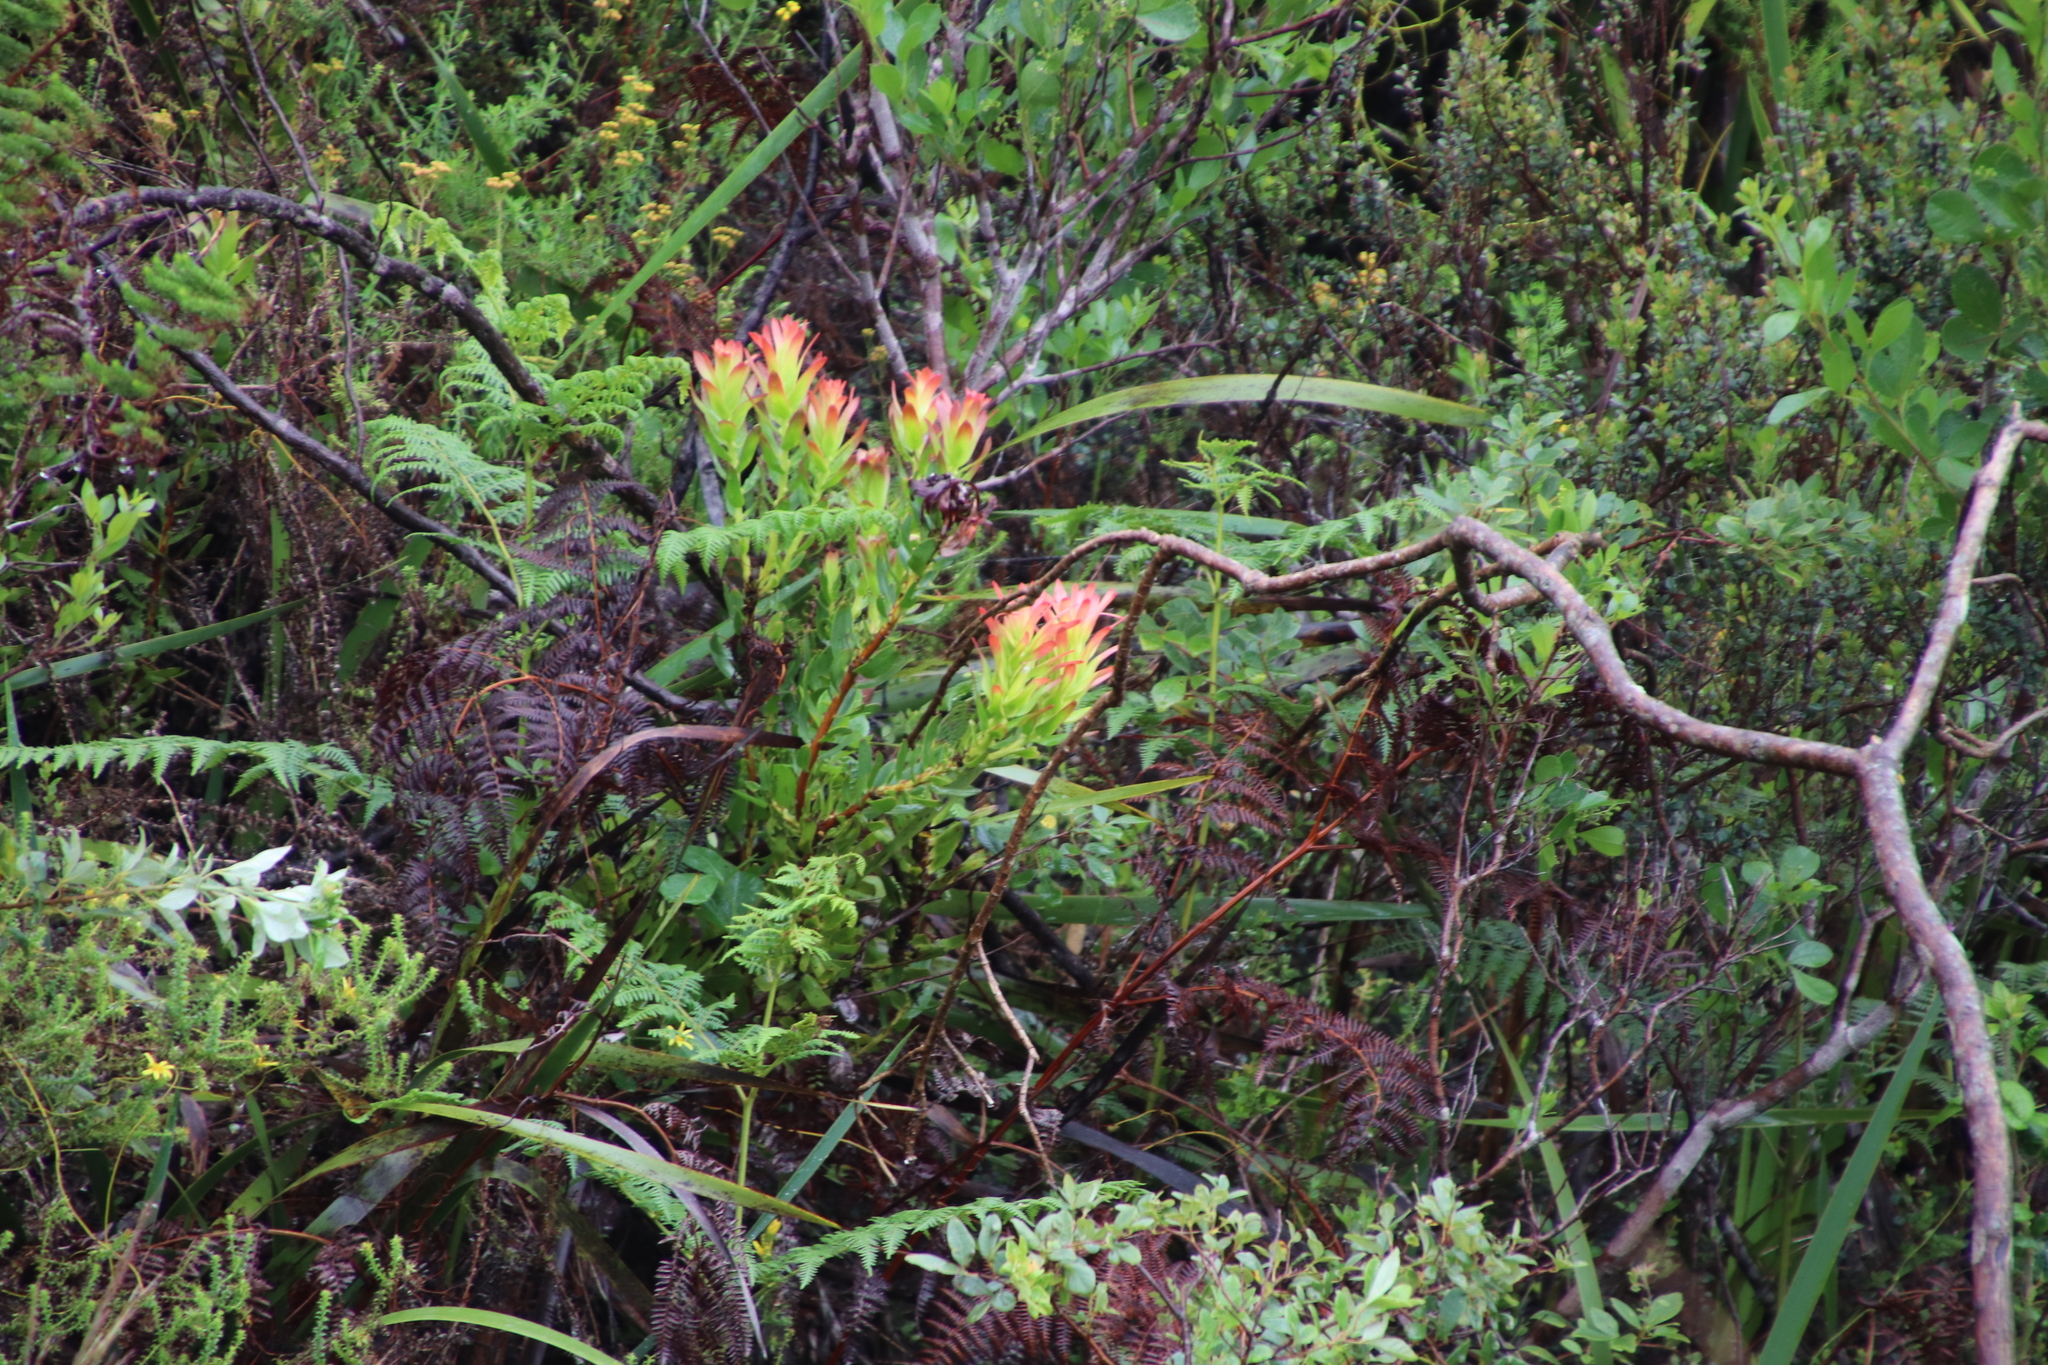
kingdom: Plantae
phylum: Tracheophyta
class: Magnoliopsida
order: Proteales
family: Proteaceae
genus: Mimetes
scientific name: Mimetes cucullatus
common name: Common pagoda
